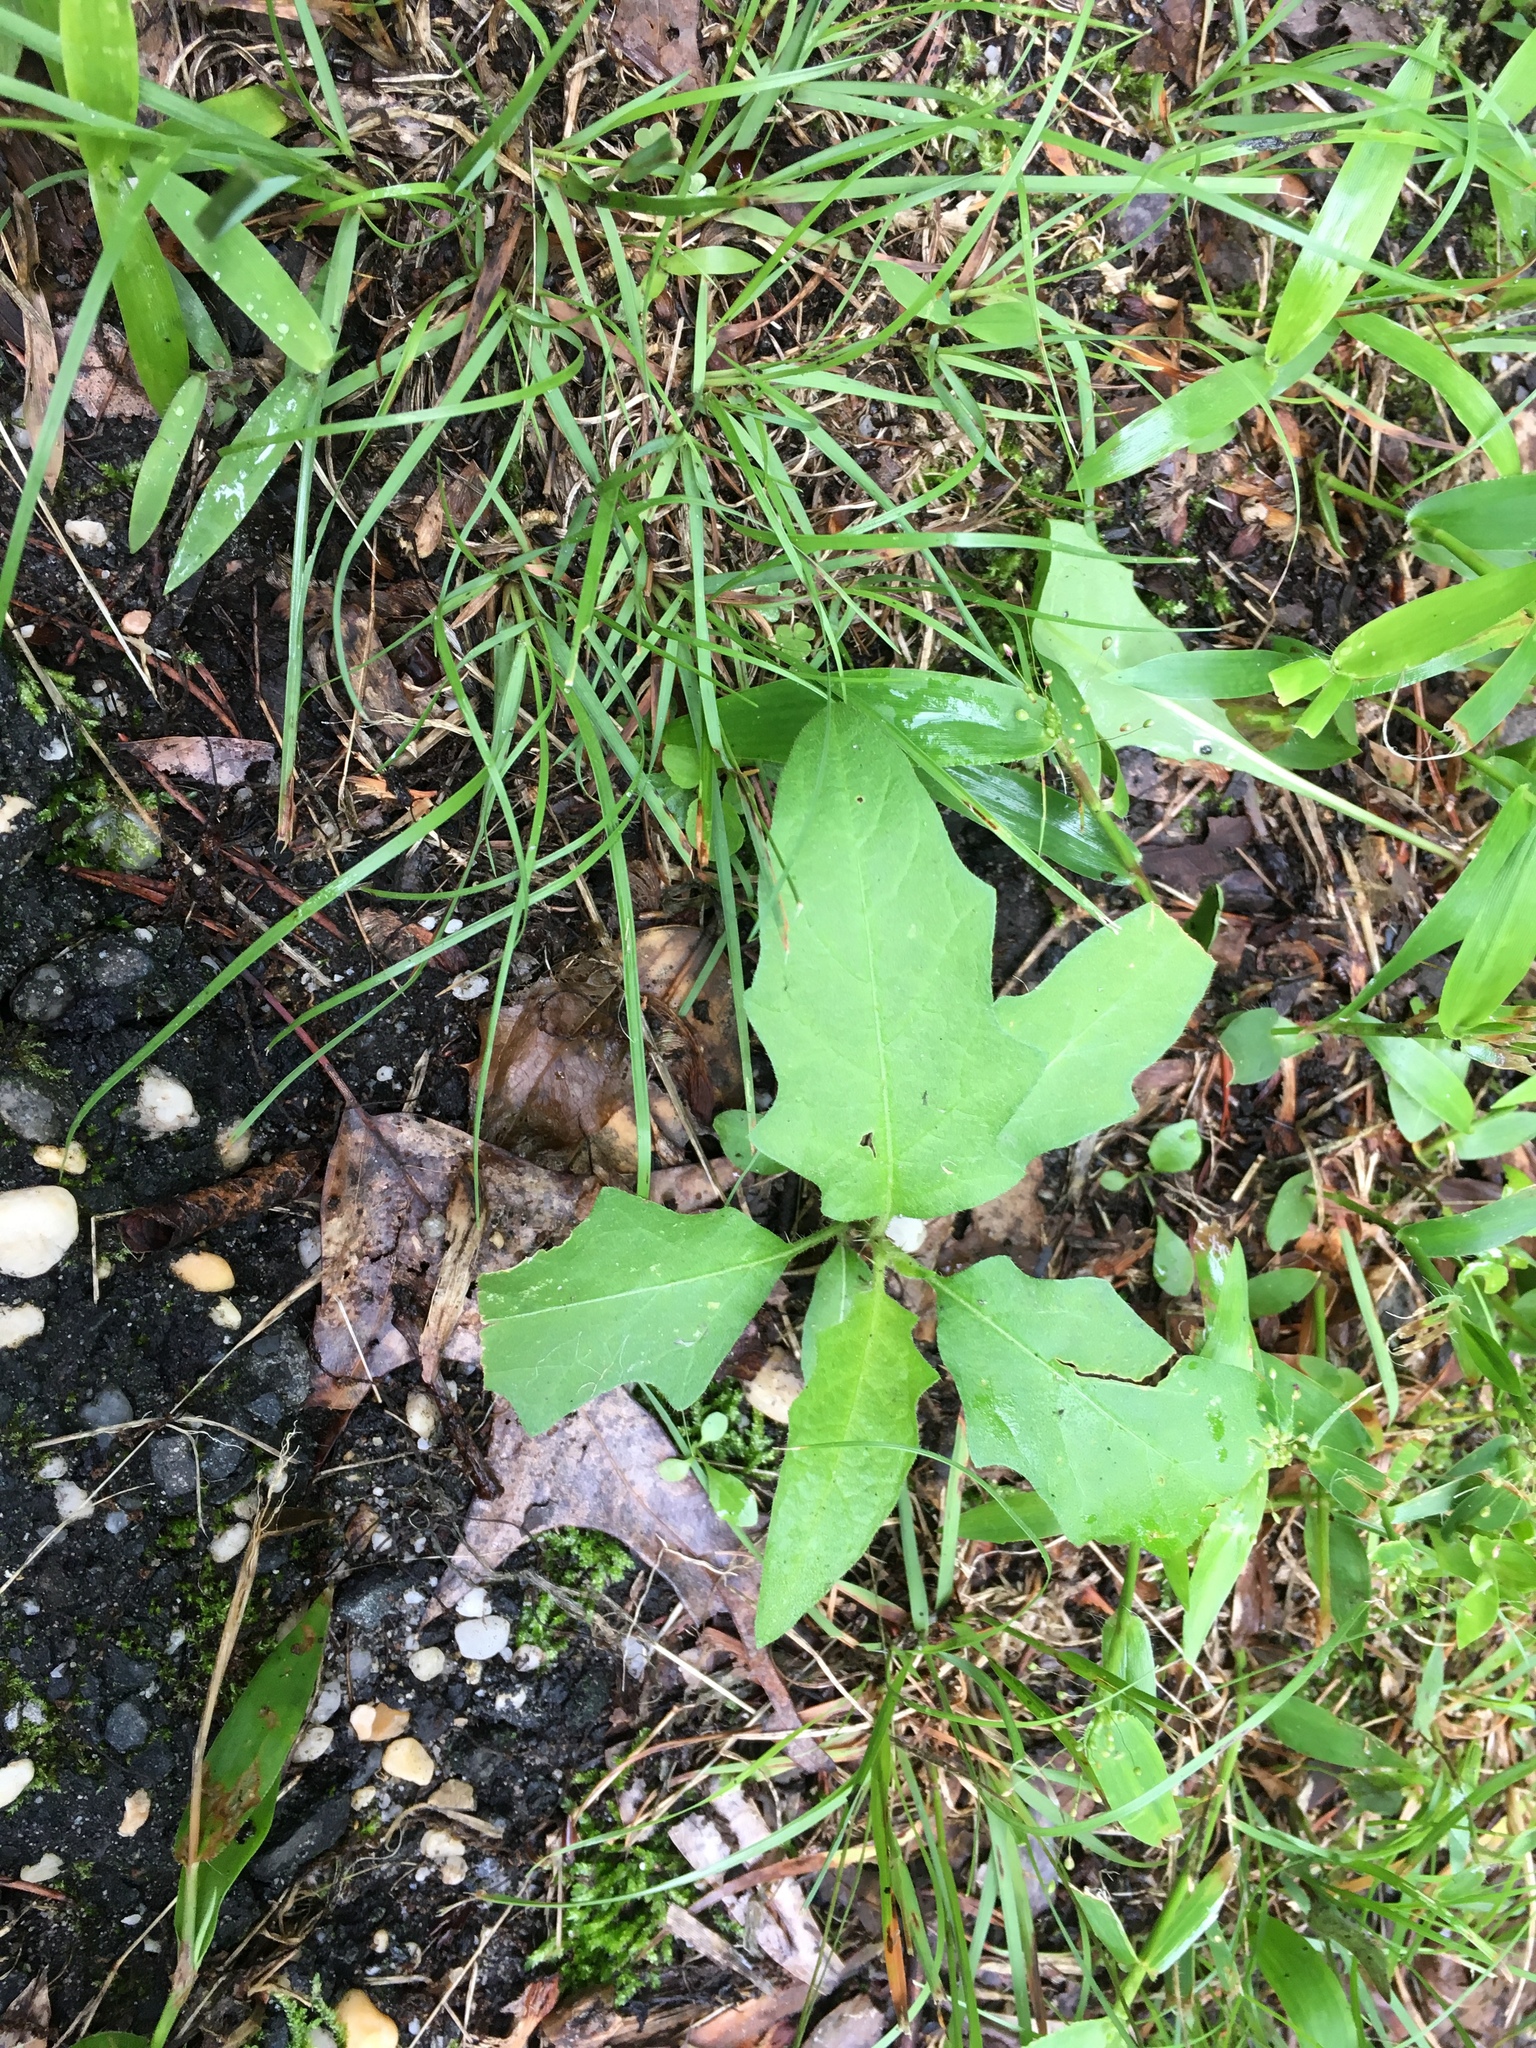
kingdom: Plantae
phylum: Tracheophyta
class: Magnoliopsida
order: Solanales
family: Solanaceae
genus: Solanum
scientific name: Solanum carolinense
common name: Horse-nettle
